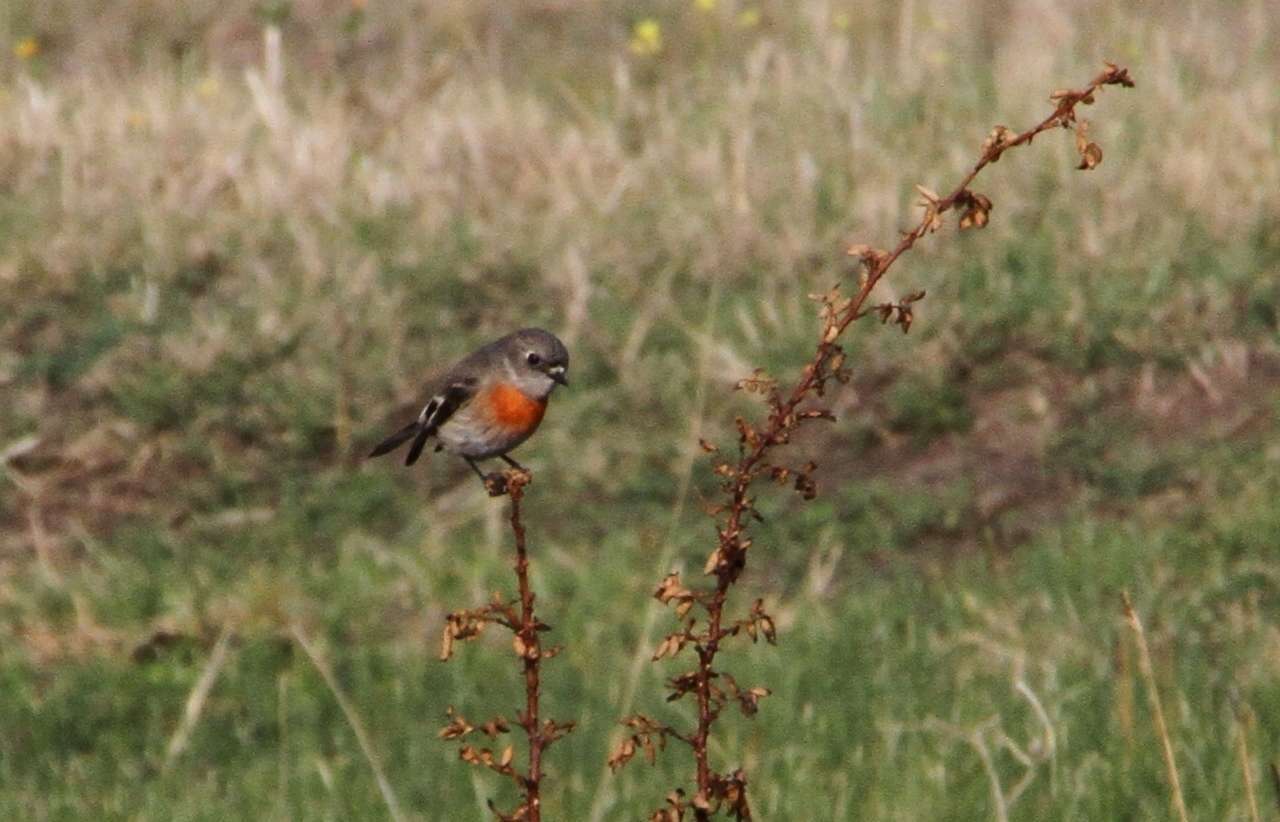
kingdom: Animalia
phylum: Chordata
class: Aves
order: Passeriformes
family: Petroicidae
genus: Petroica
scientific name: Petroica boodang
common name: Scarlet robin
